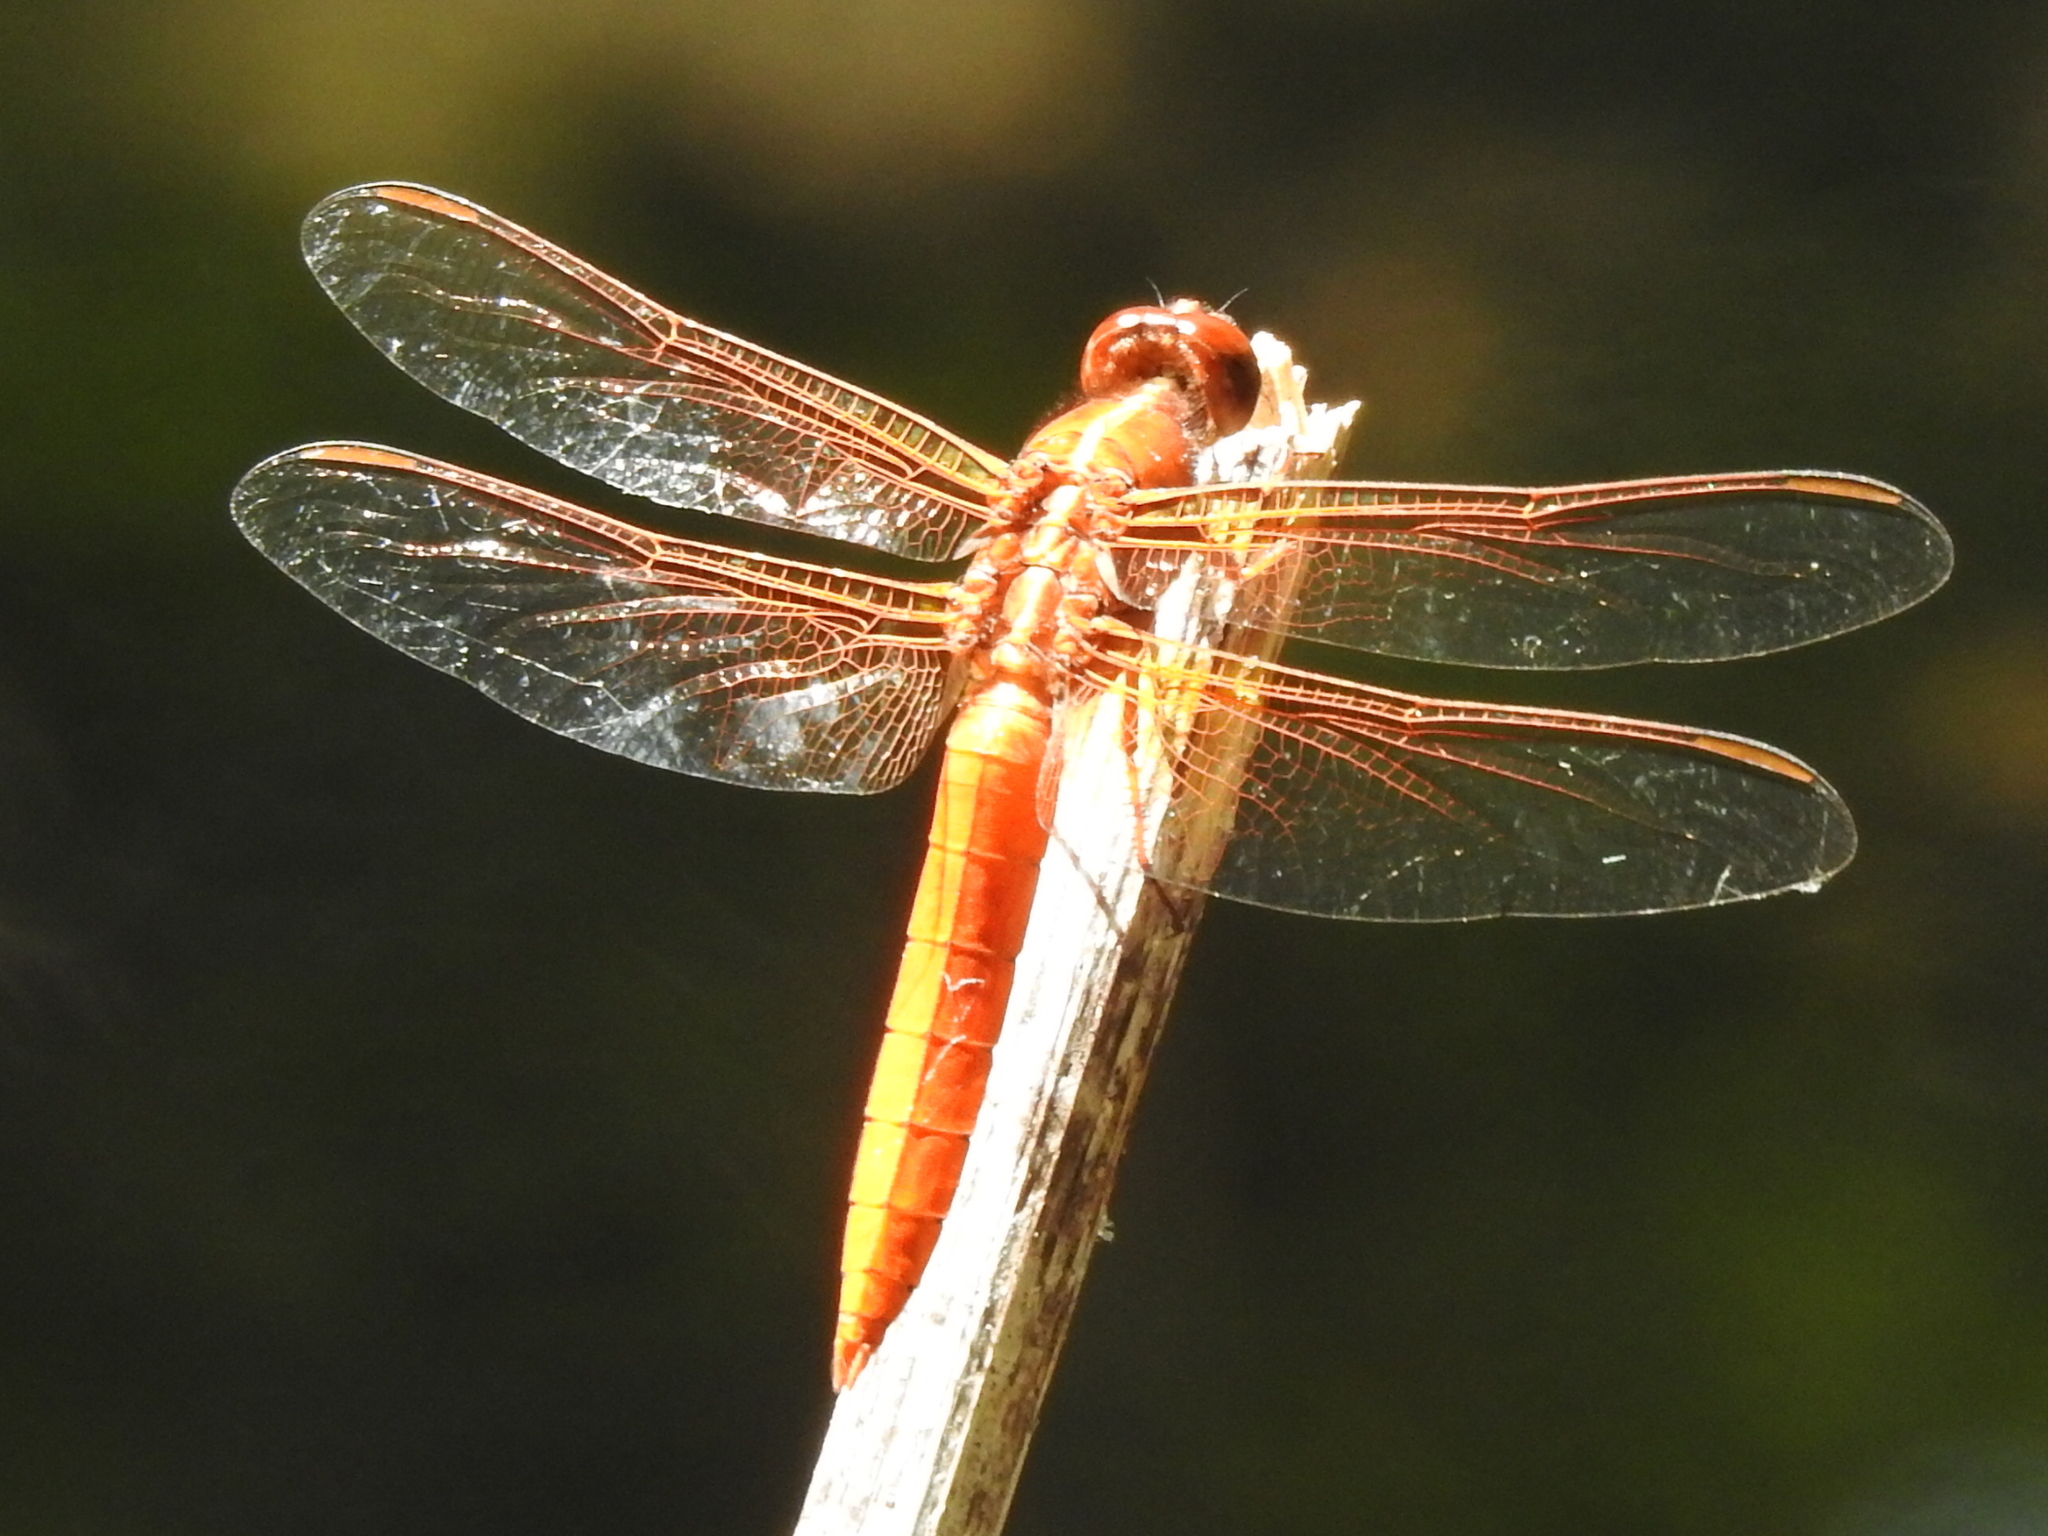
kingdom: Animalia
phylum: Arthropoda
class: Insecta
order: Odonata
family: Libellulidae
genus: Libellula
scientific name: Libellula croceipennis
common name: Neon skimmer
